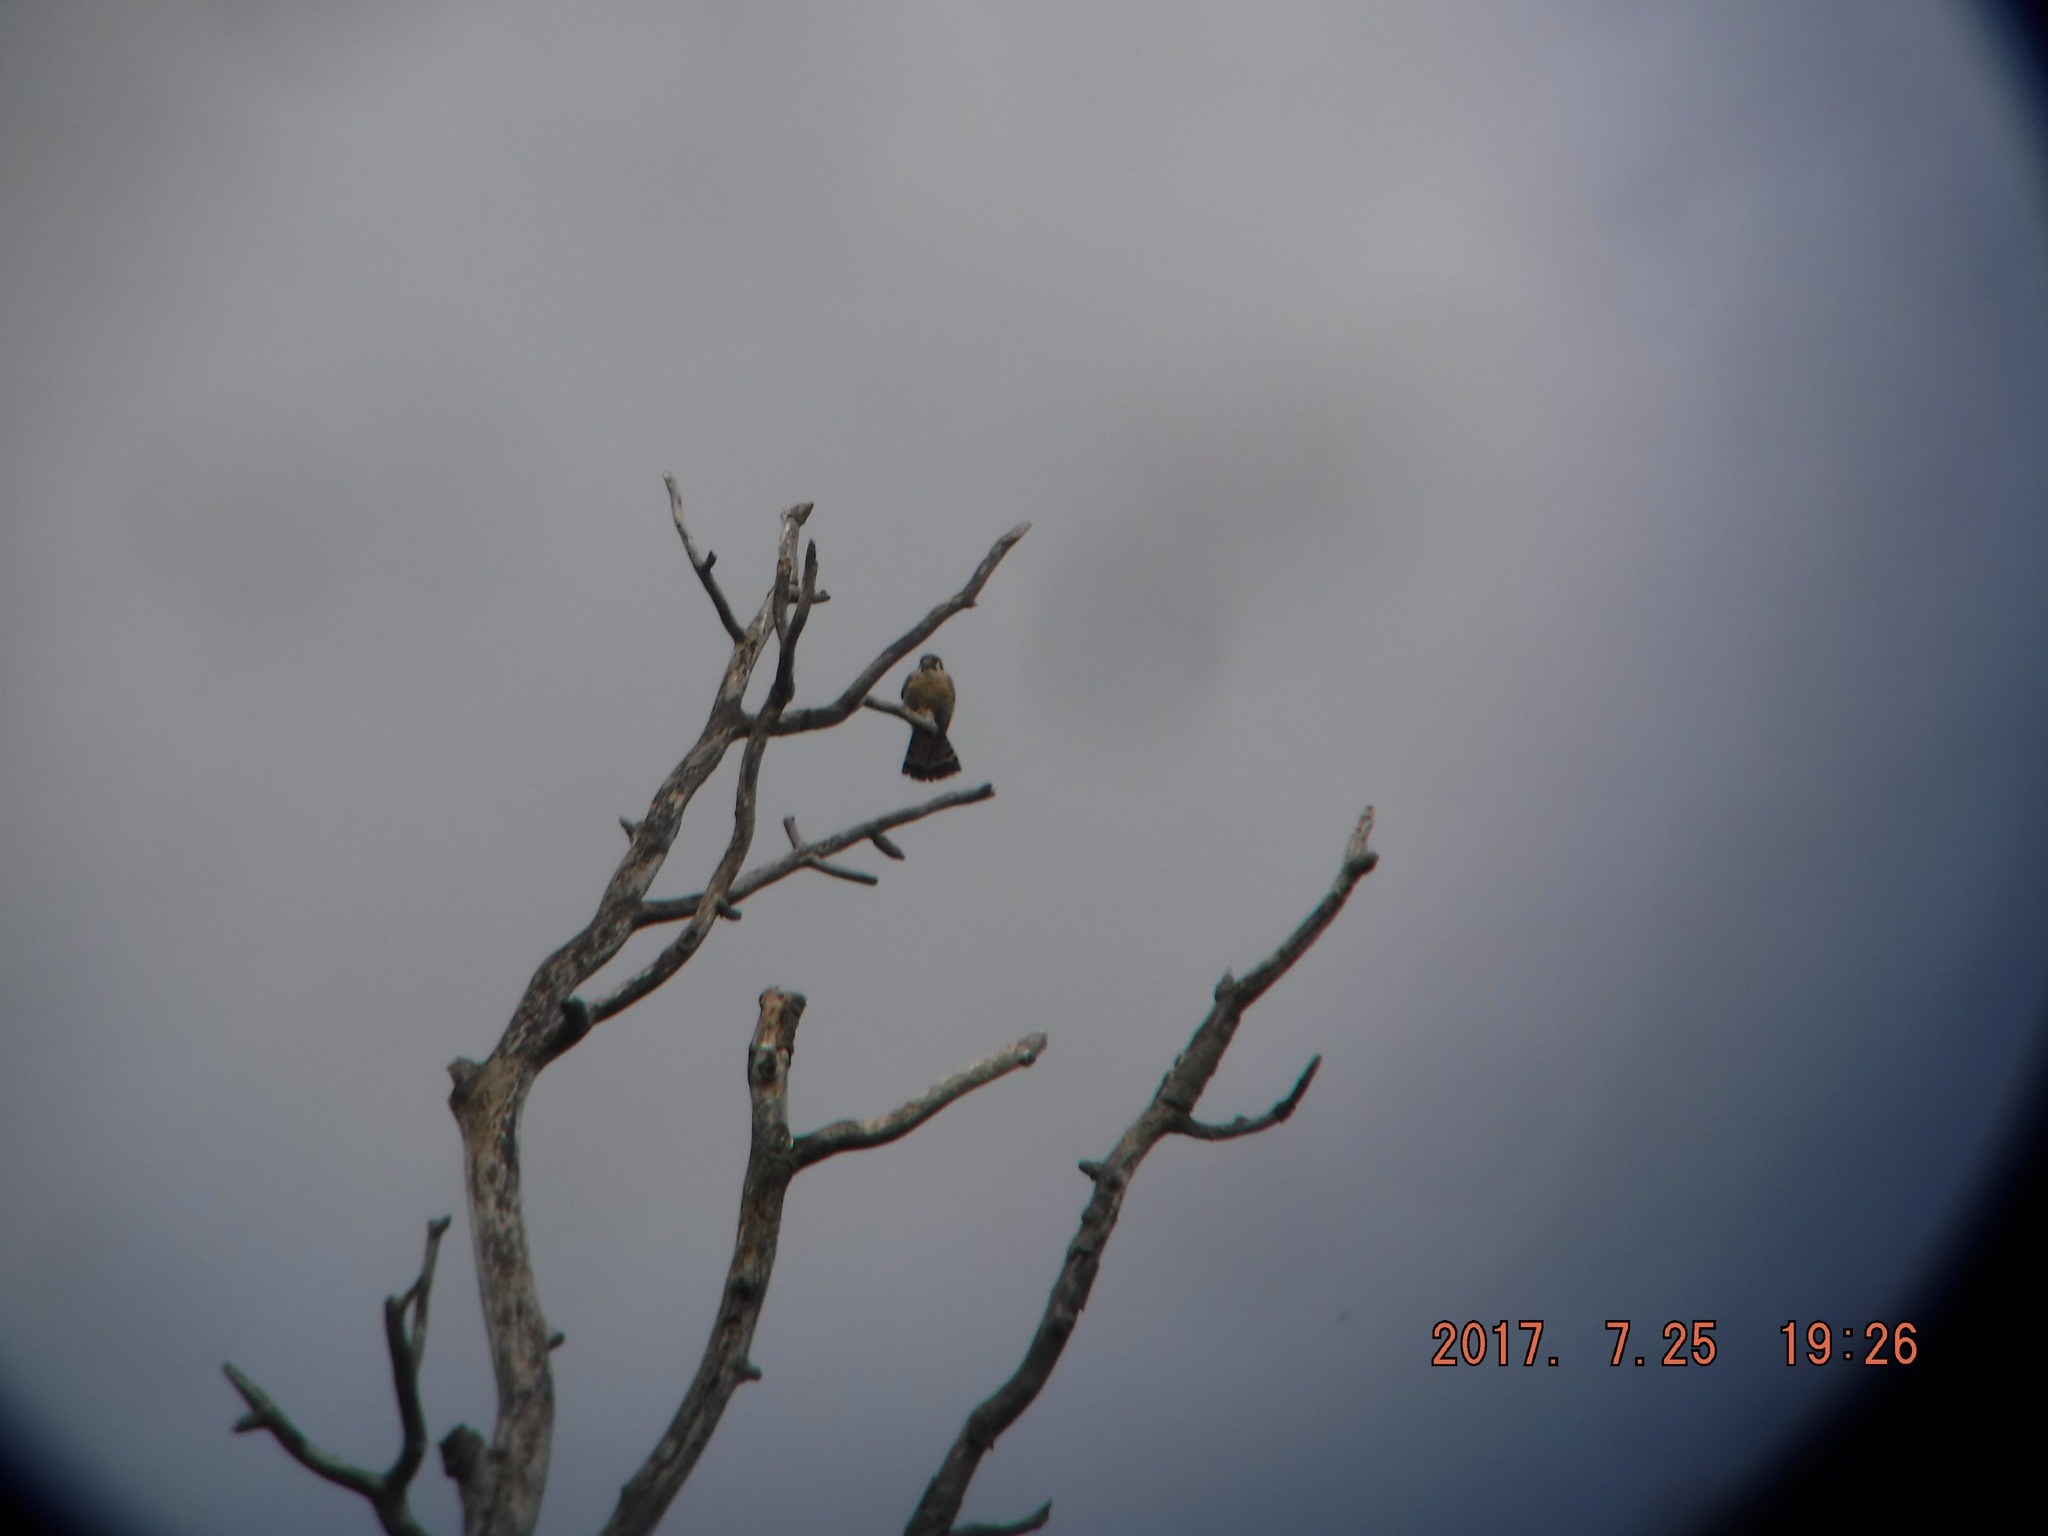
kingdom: Animalia
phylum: Chordata
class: Aves
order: Falconiformes
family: Falconidae
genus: Falco
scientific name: Falco sparverius
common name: American kestrel
